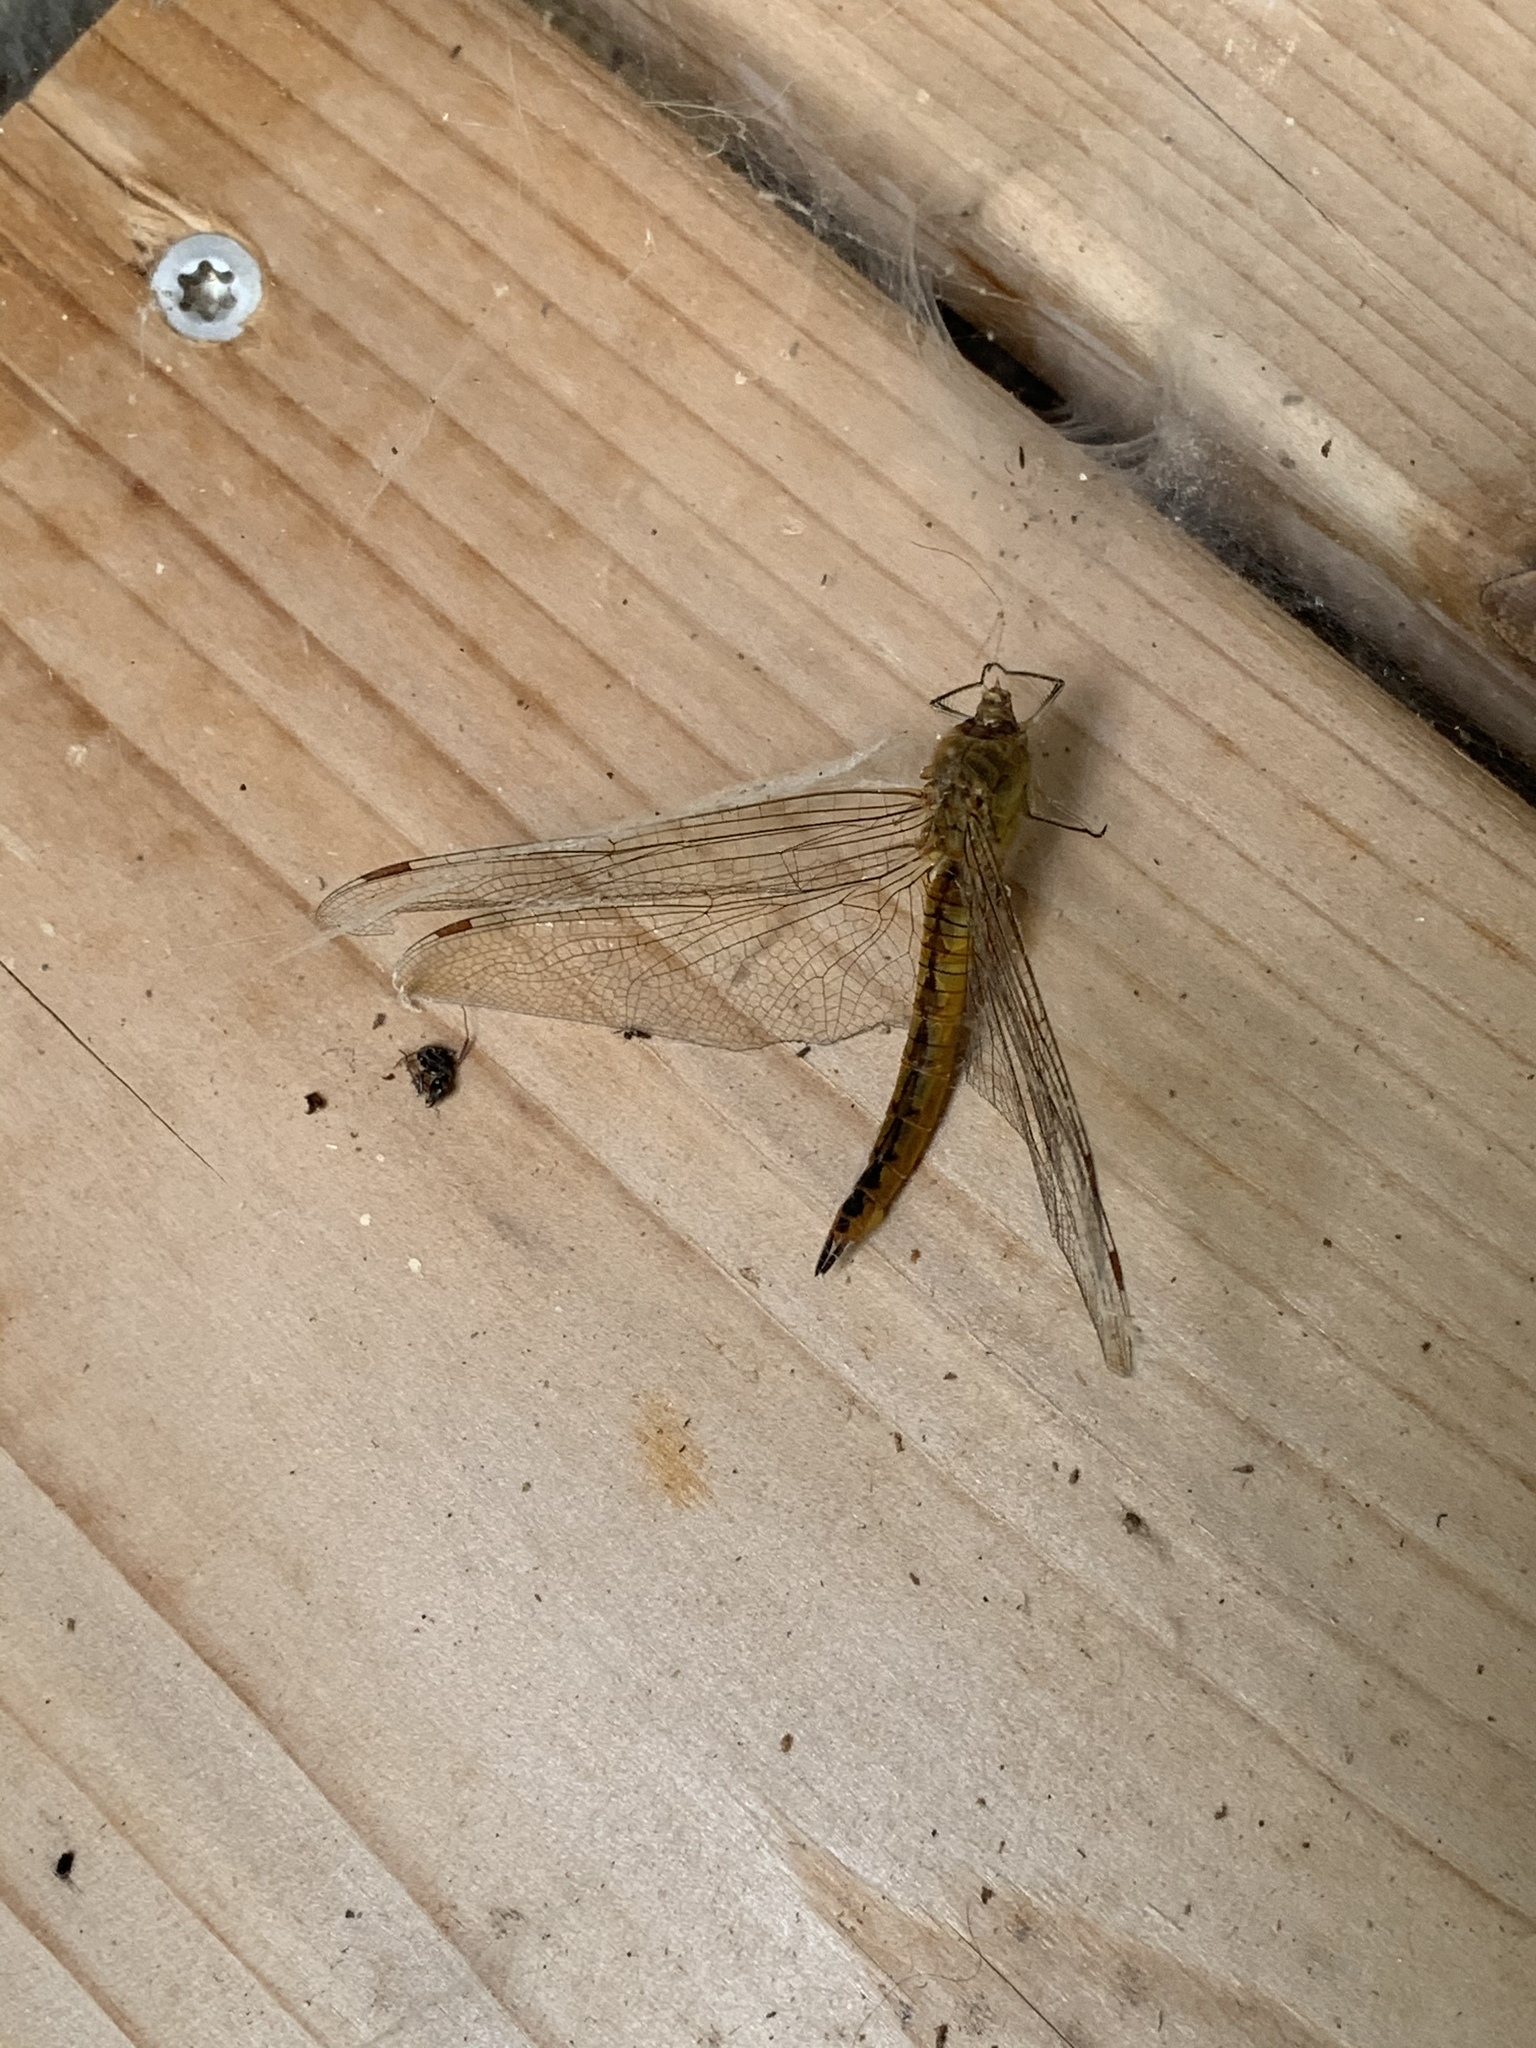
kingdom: Animalia
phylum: Arthropoda
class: Insecta
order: Odonata
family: Libellulidae
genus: Pantala
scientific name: Pantala flavescens
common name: Wandering glider
